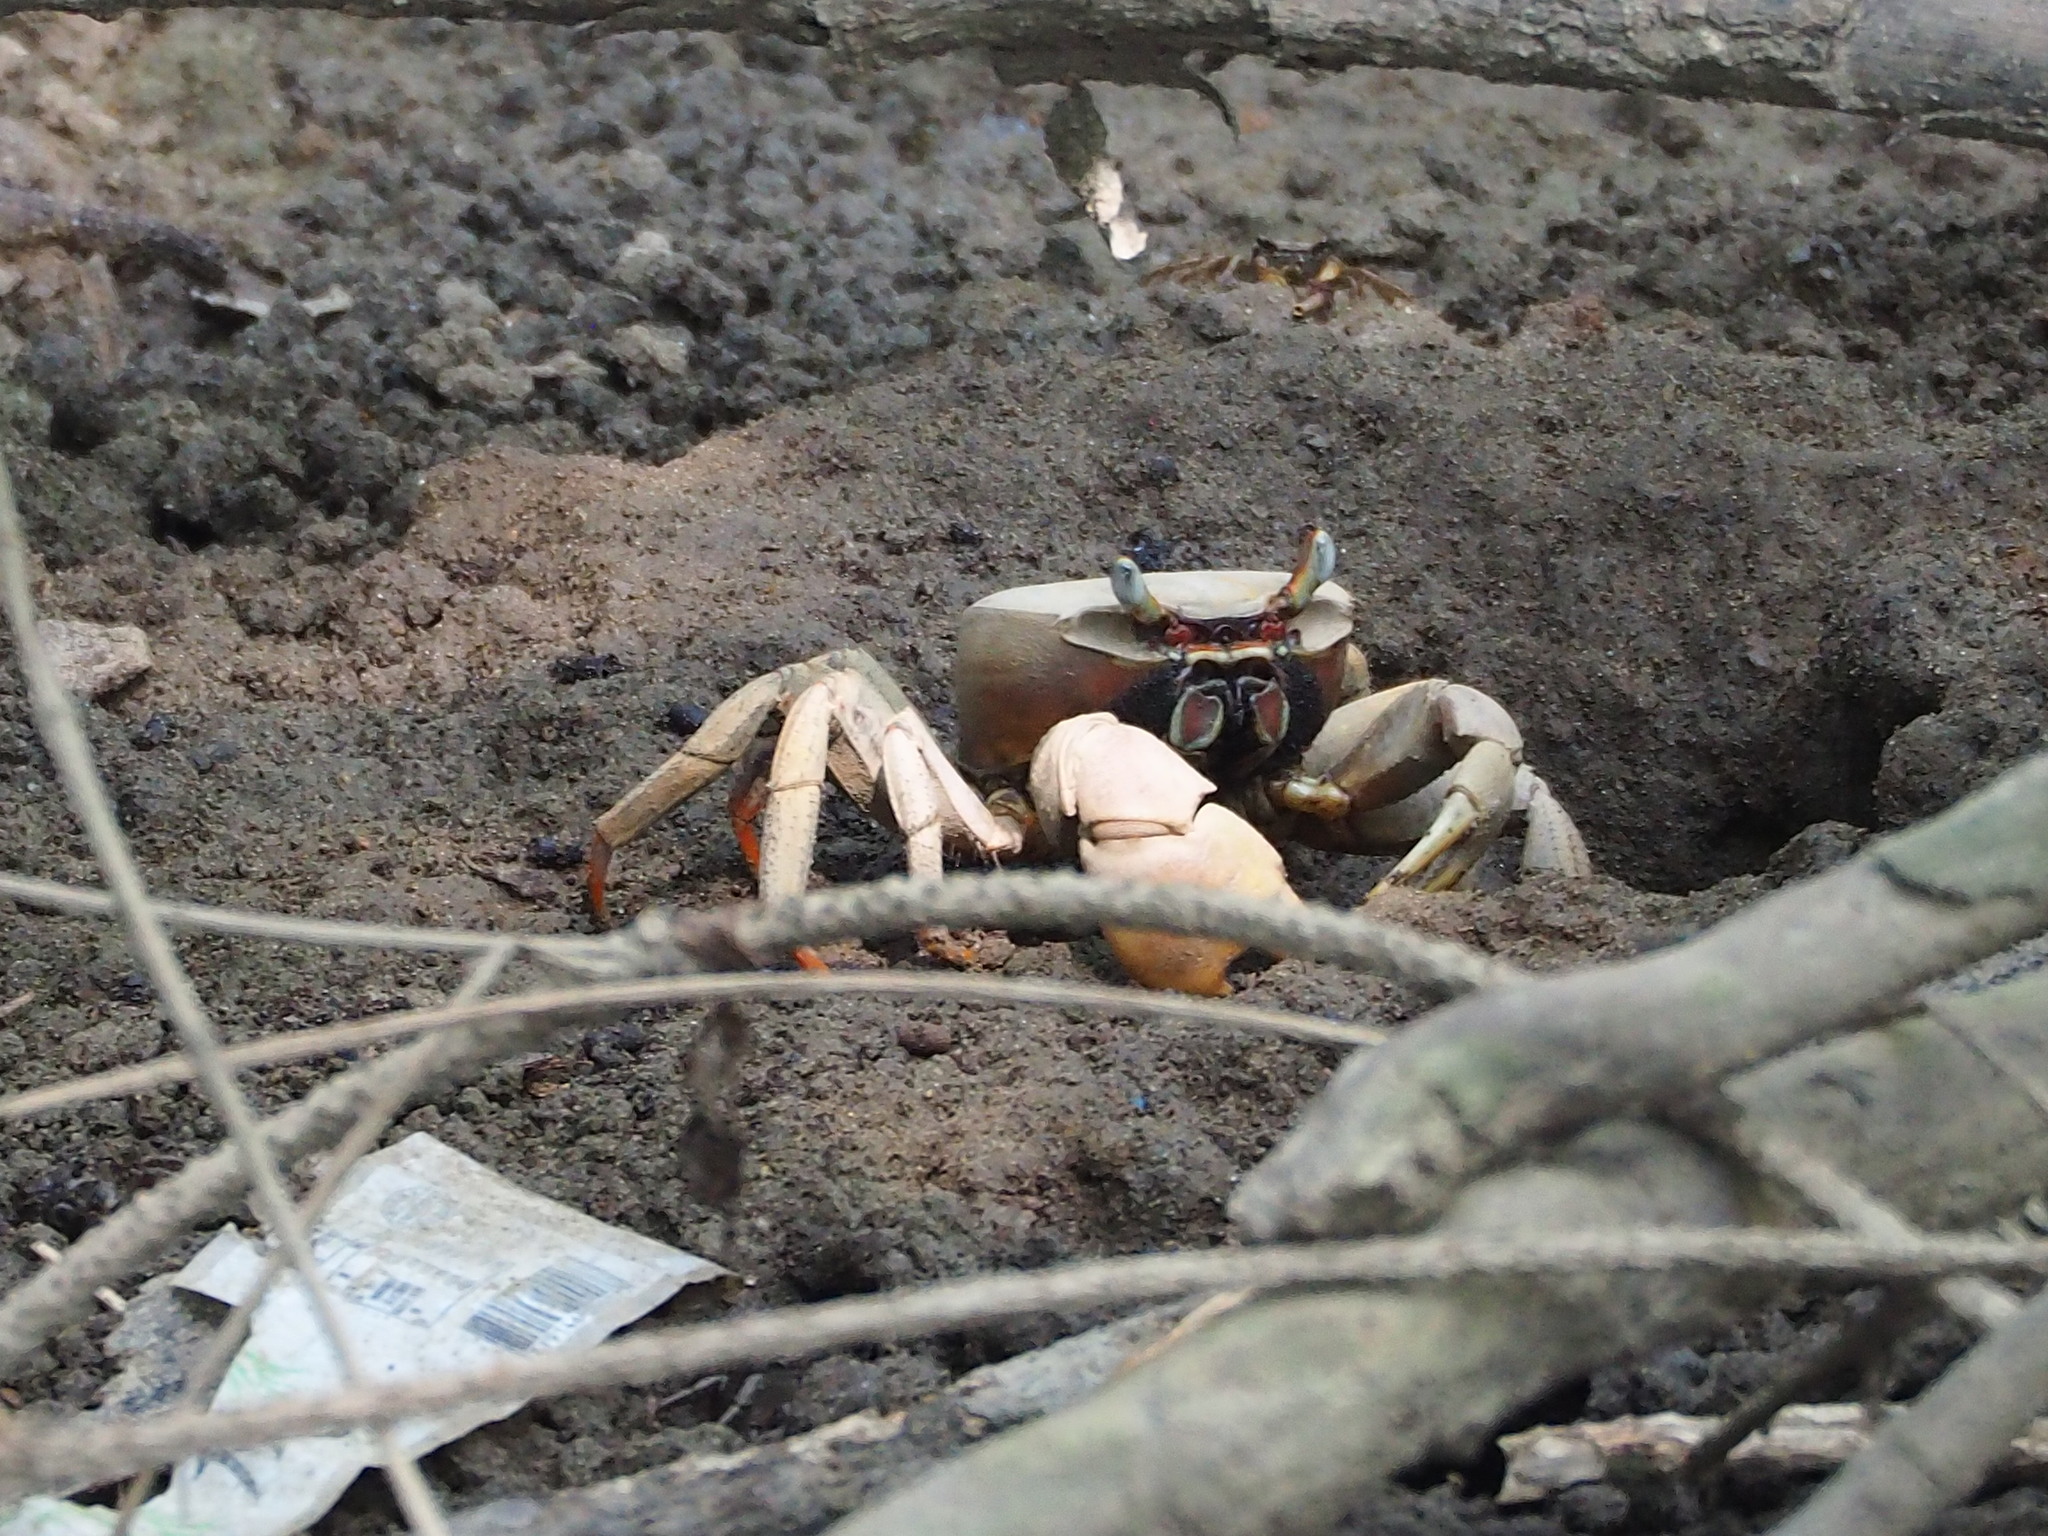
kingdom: Animalia
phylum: Arthropoda
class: Malacostraca
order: Decapoda
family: Gecarcinidae
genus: Cardisoma
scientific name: Cardisoma carnifex
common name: Brown land crab
